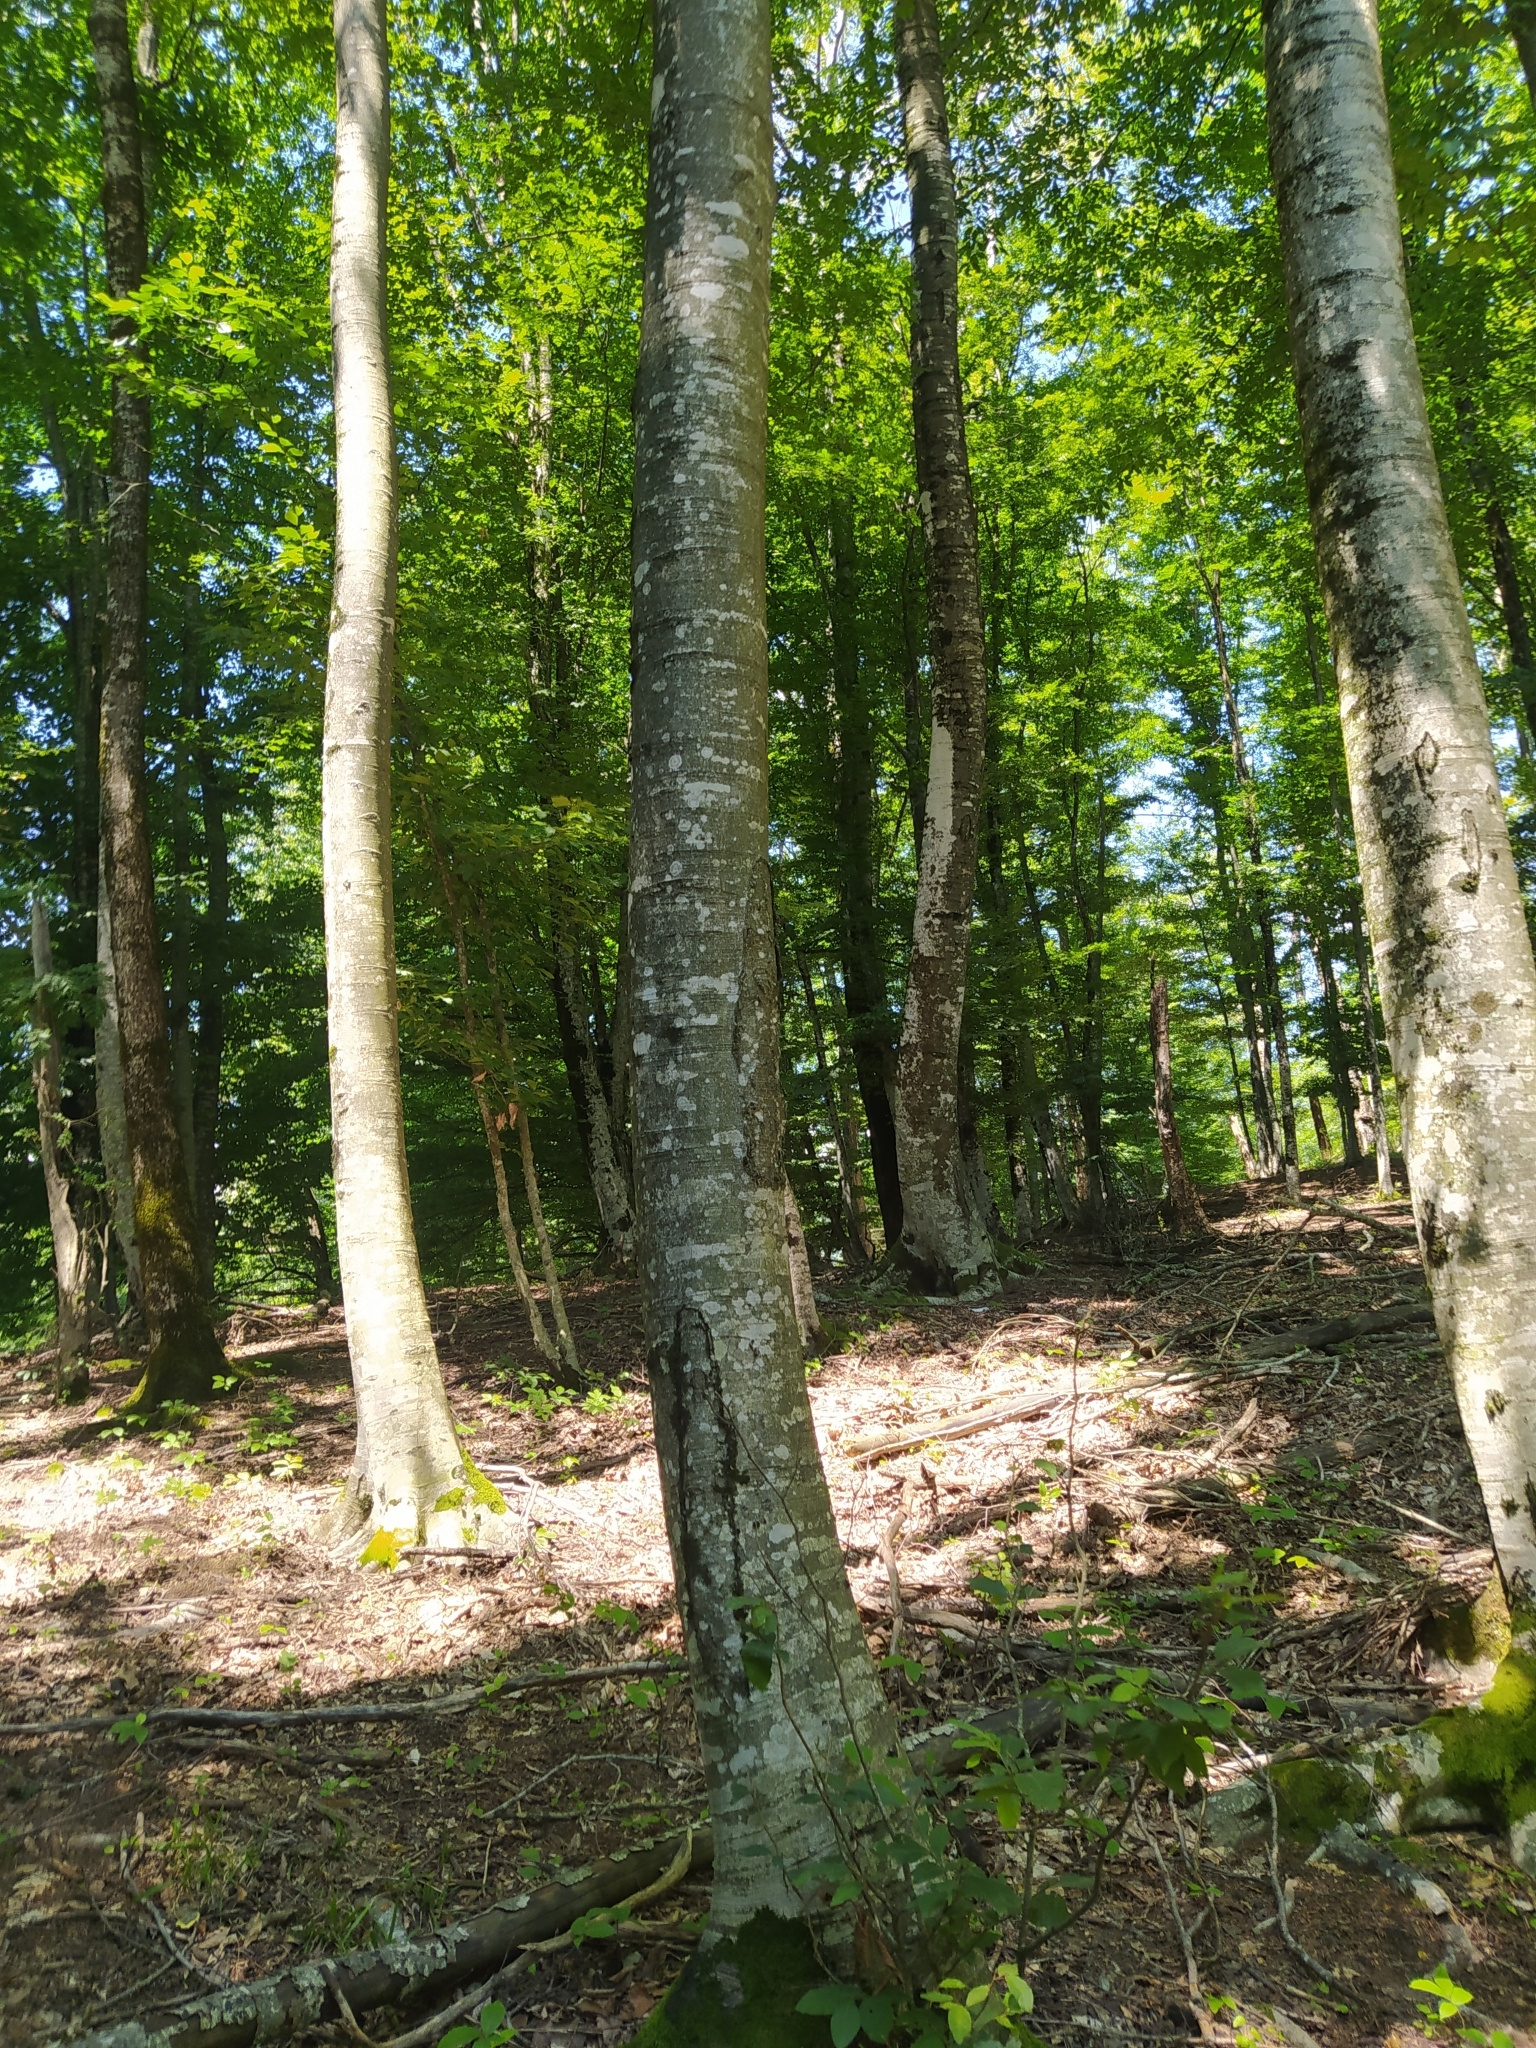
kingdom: Plantae
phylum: Tracheophyta
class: Magnoliopsida
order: Fagales
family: Fagaceae
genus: Fagus
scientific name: Fagus orientalis
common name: Oriental beech
